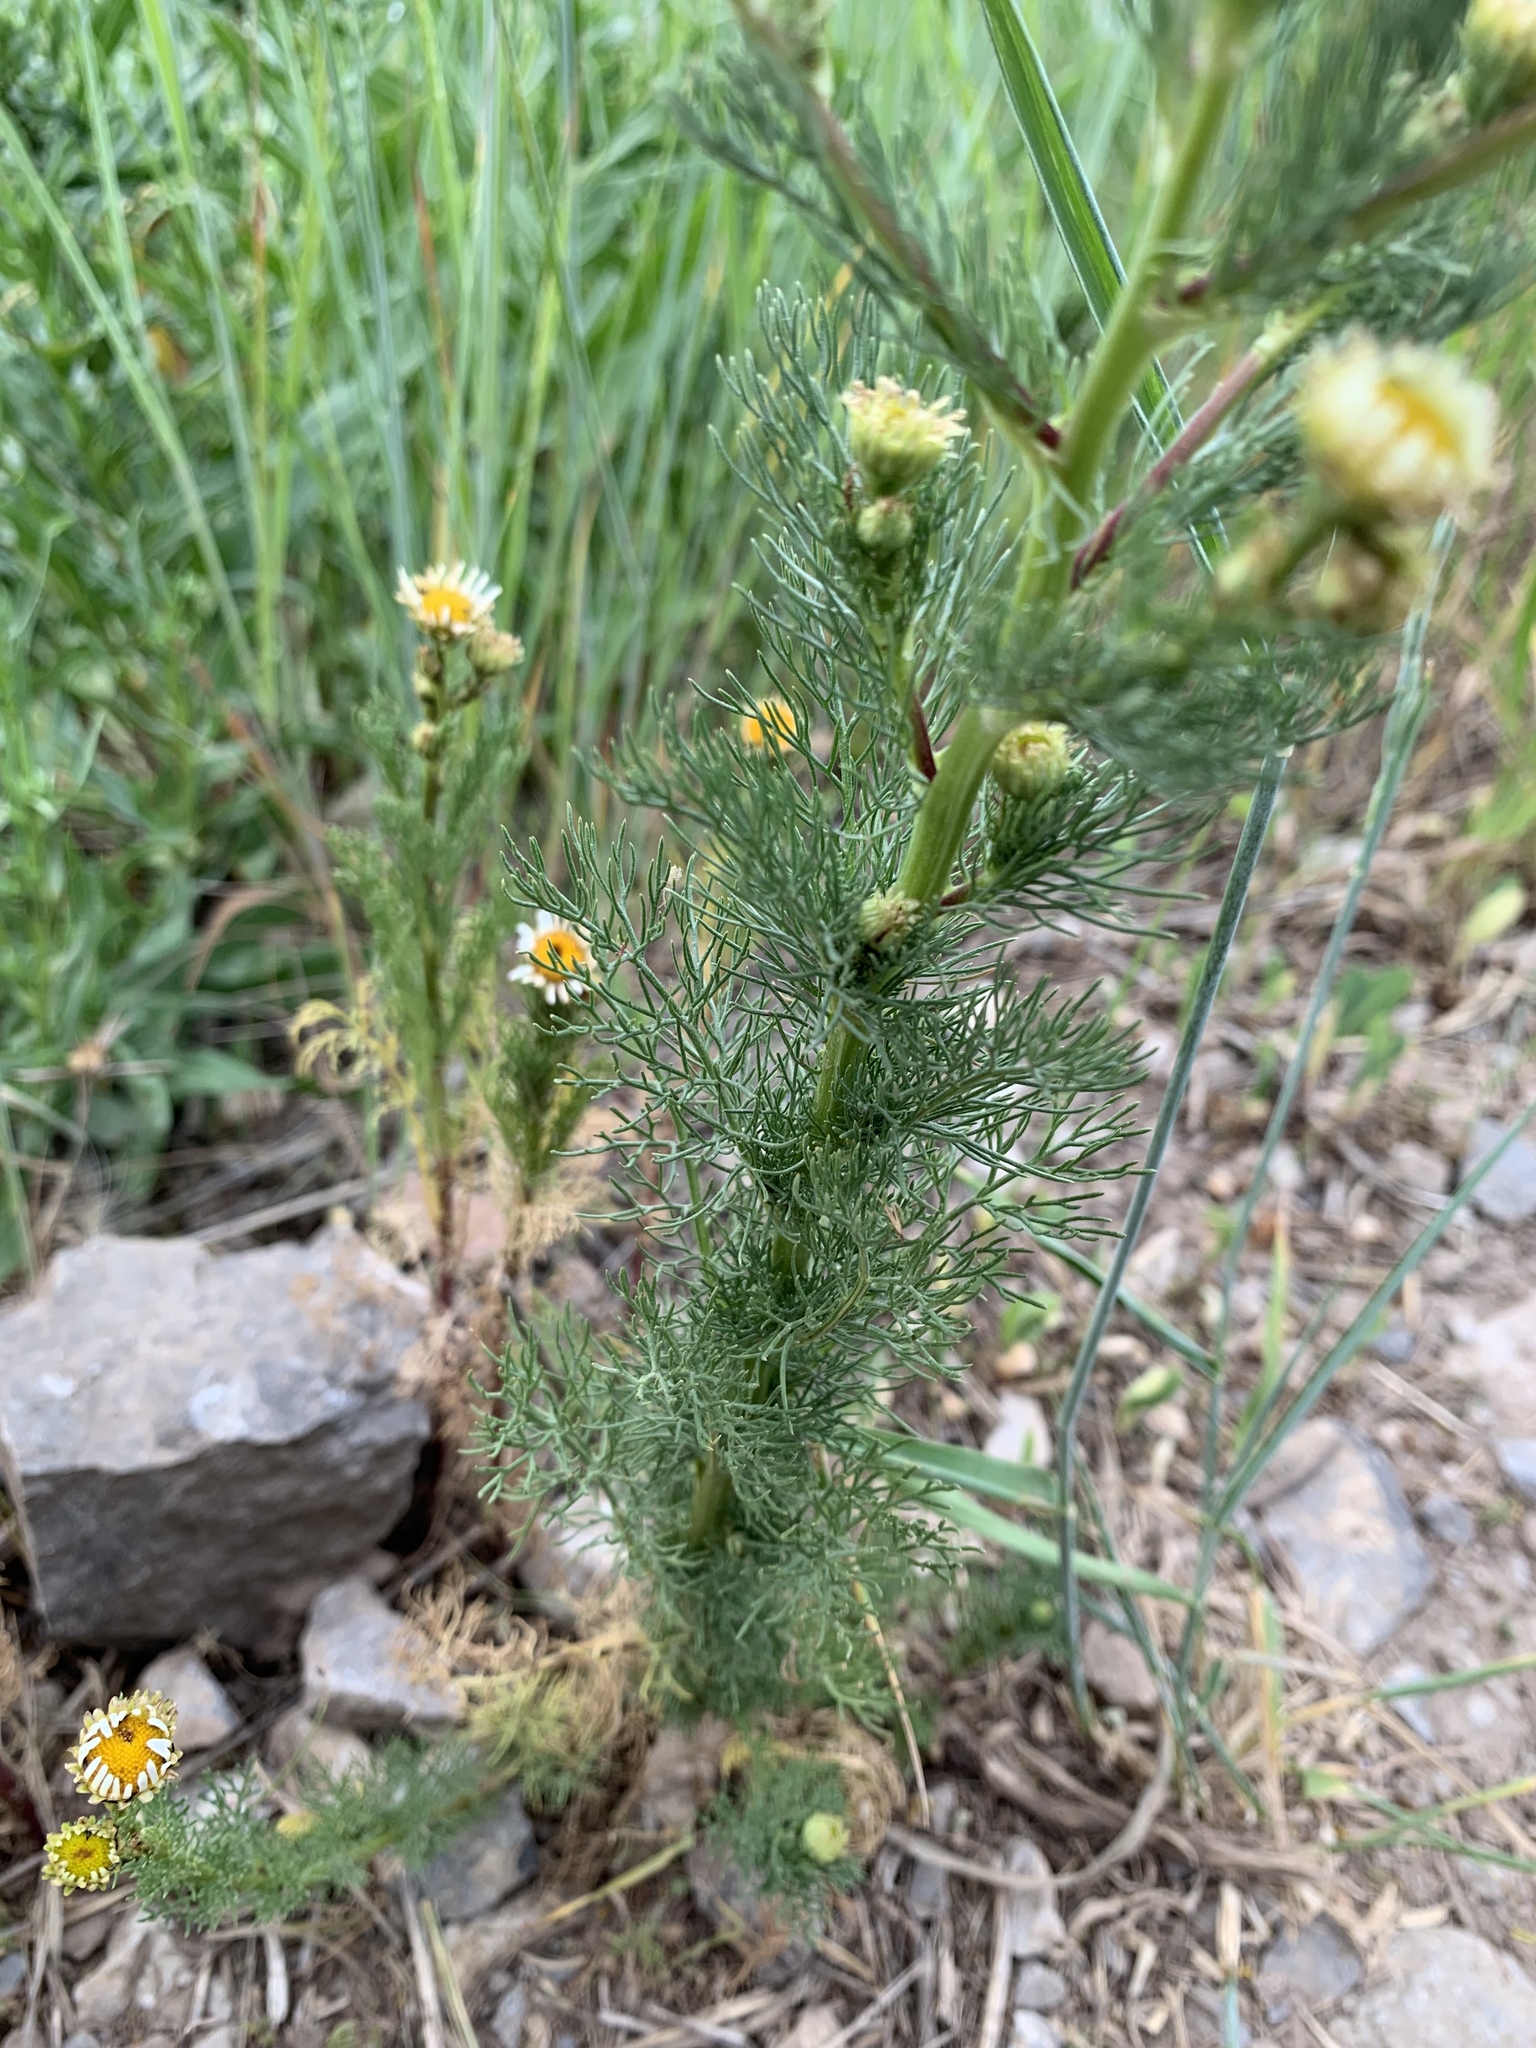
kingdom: Plantae
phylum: Tracheophyta
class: Magnoliopsida
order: Asterales
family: Asteraceae
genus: Tripleurospermum
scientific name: Tripleurospermum inodorum
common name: Scentless mayweed
